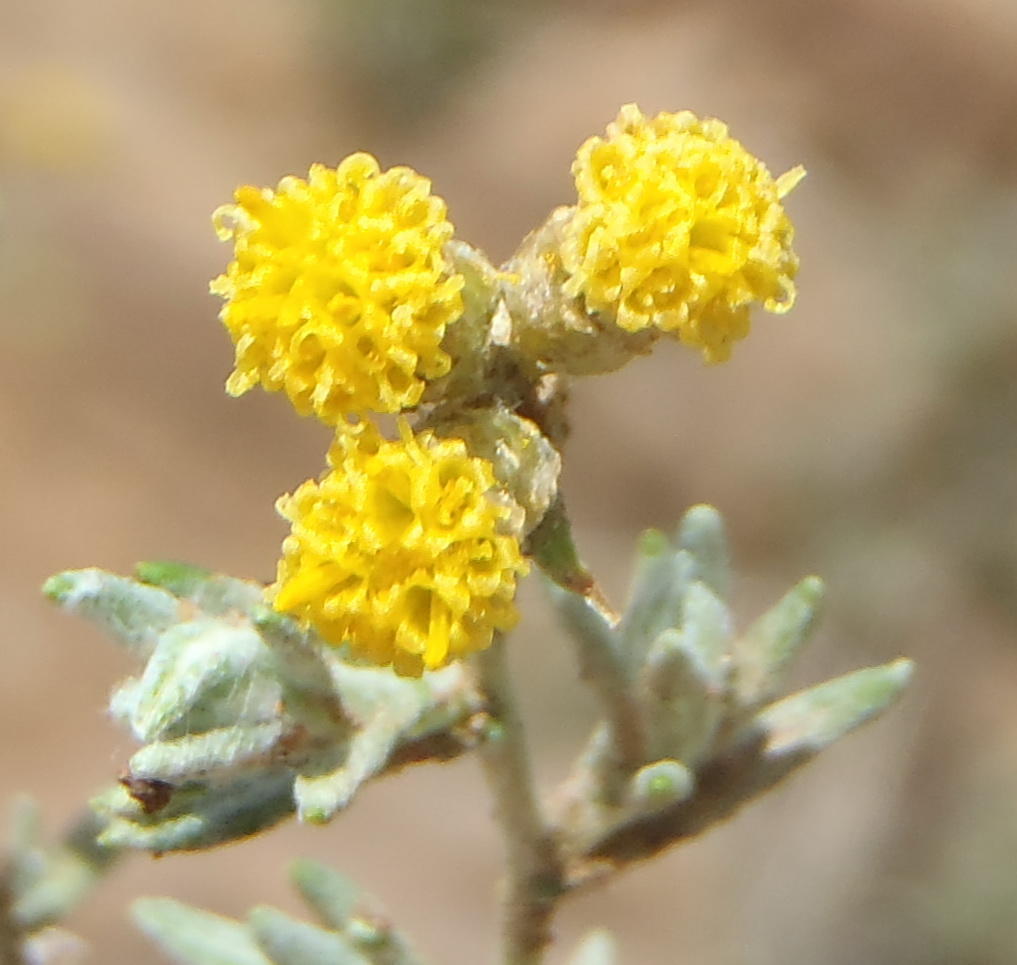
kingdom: Plantae
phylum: Tracheophyta
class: Magnoliopsida
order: Asterales
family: Asteraceae
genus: Helichrysum
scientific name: Helichrysum dregeanum
